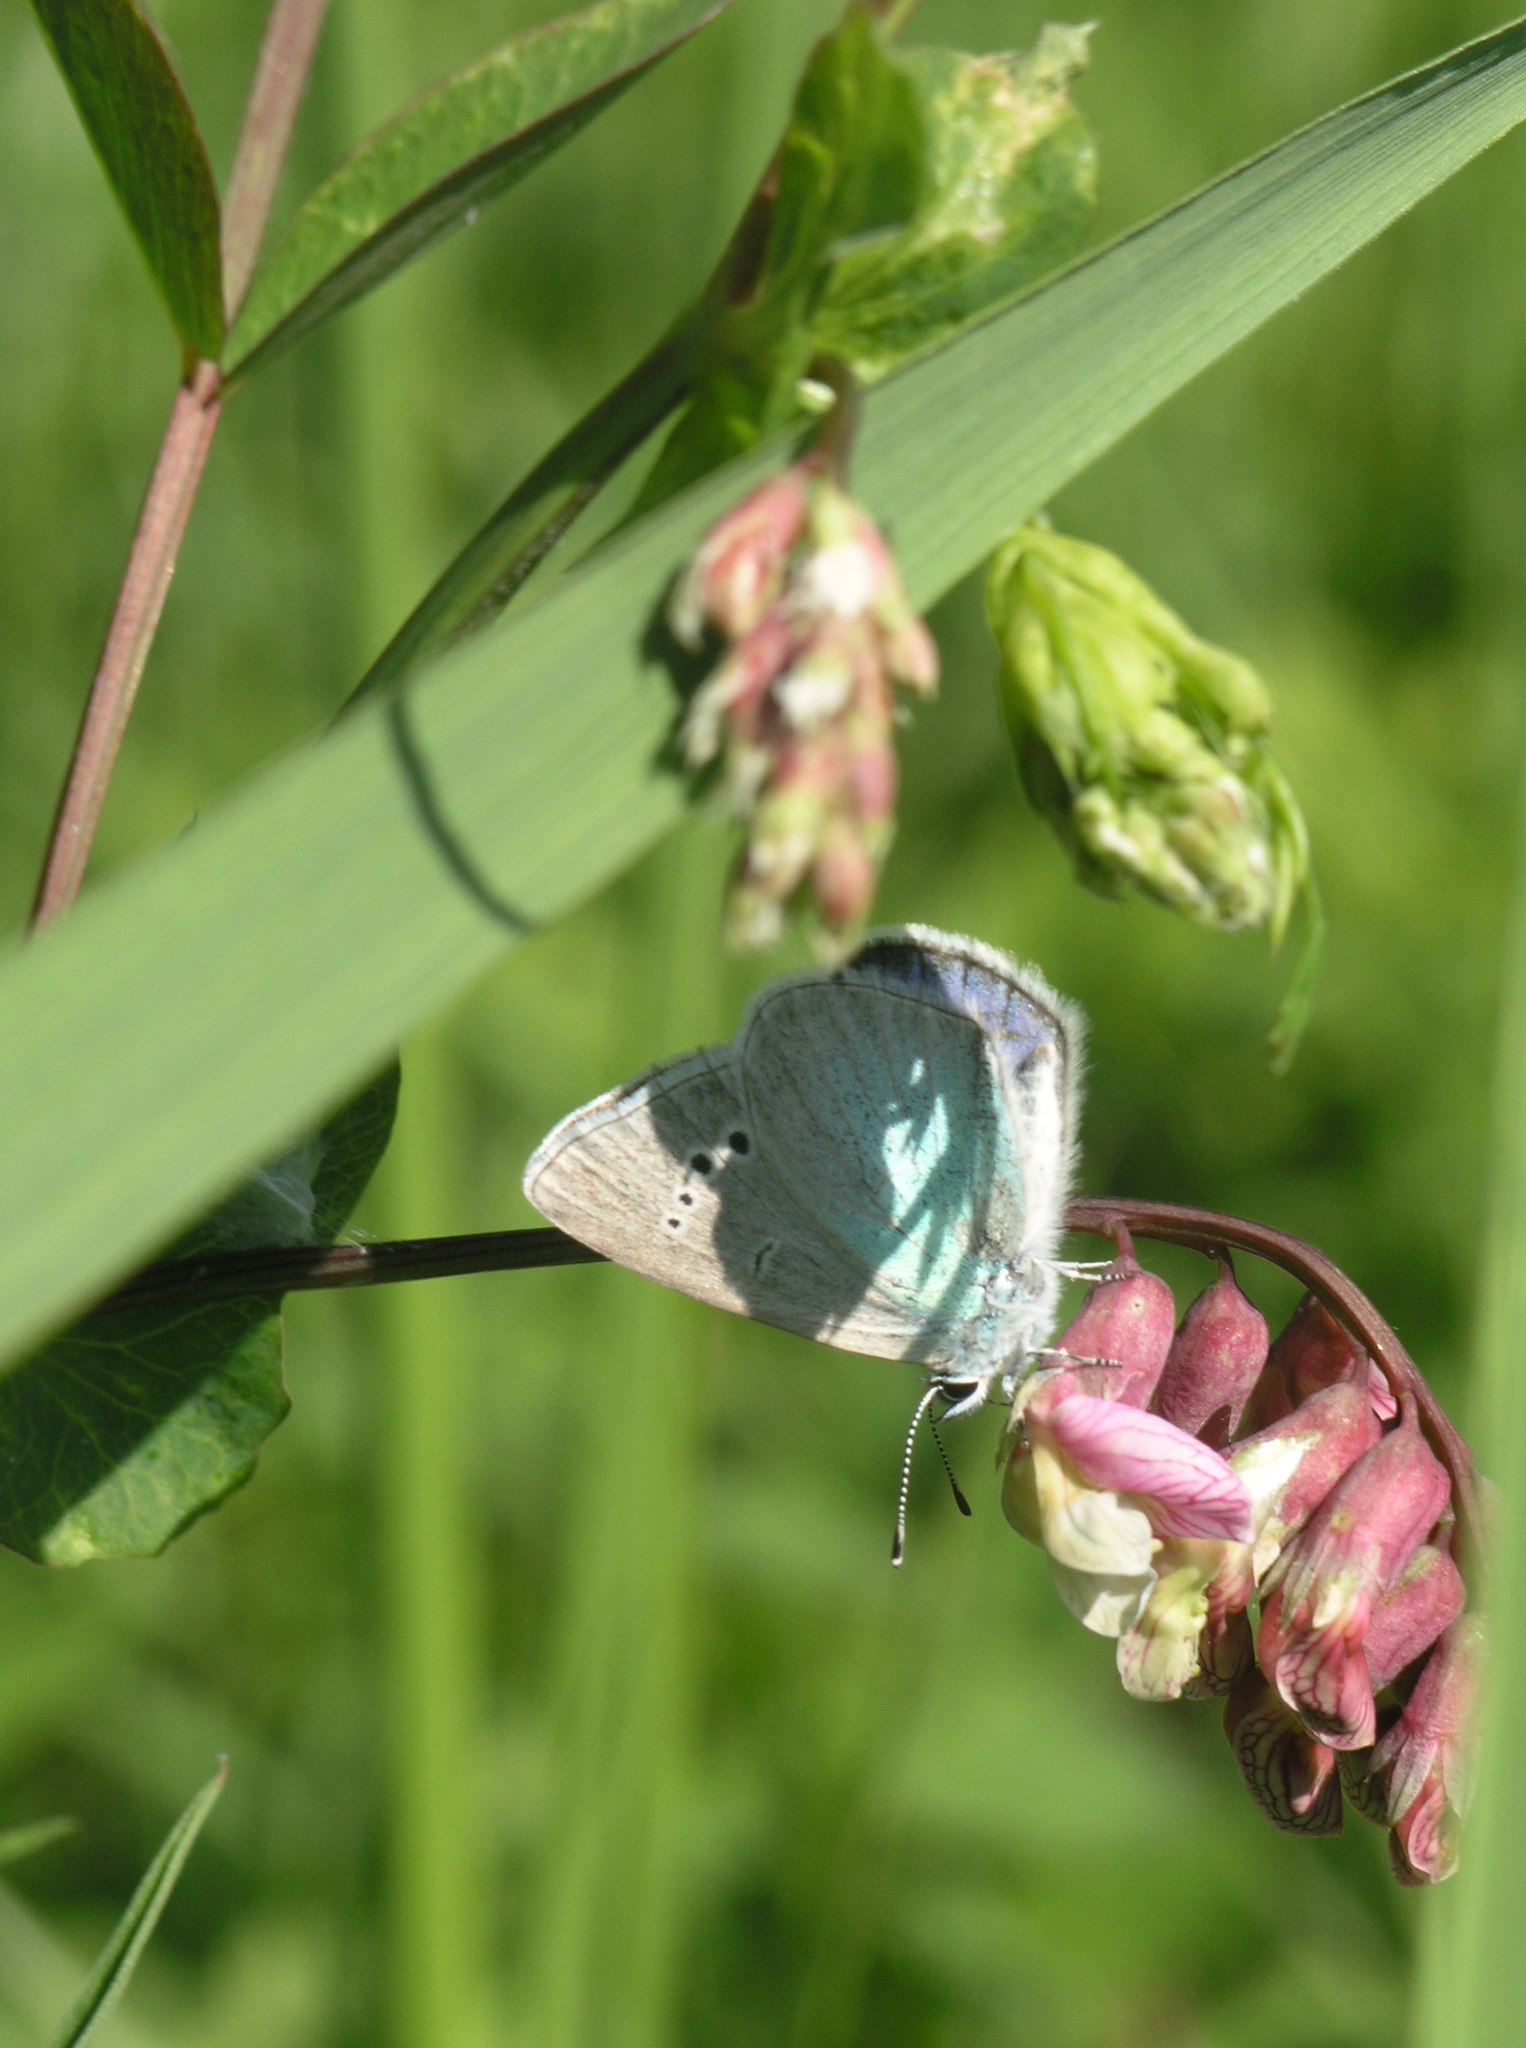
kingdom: Animalia
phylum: Arthropoda
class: Insecta
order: Lepidoptera
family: Lycaenidae
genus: Glaucopsyche
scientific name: Glaucopsyche lycormas
